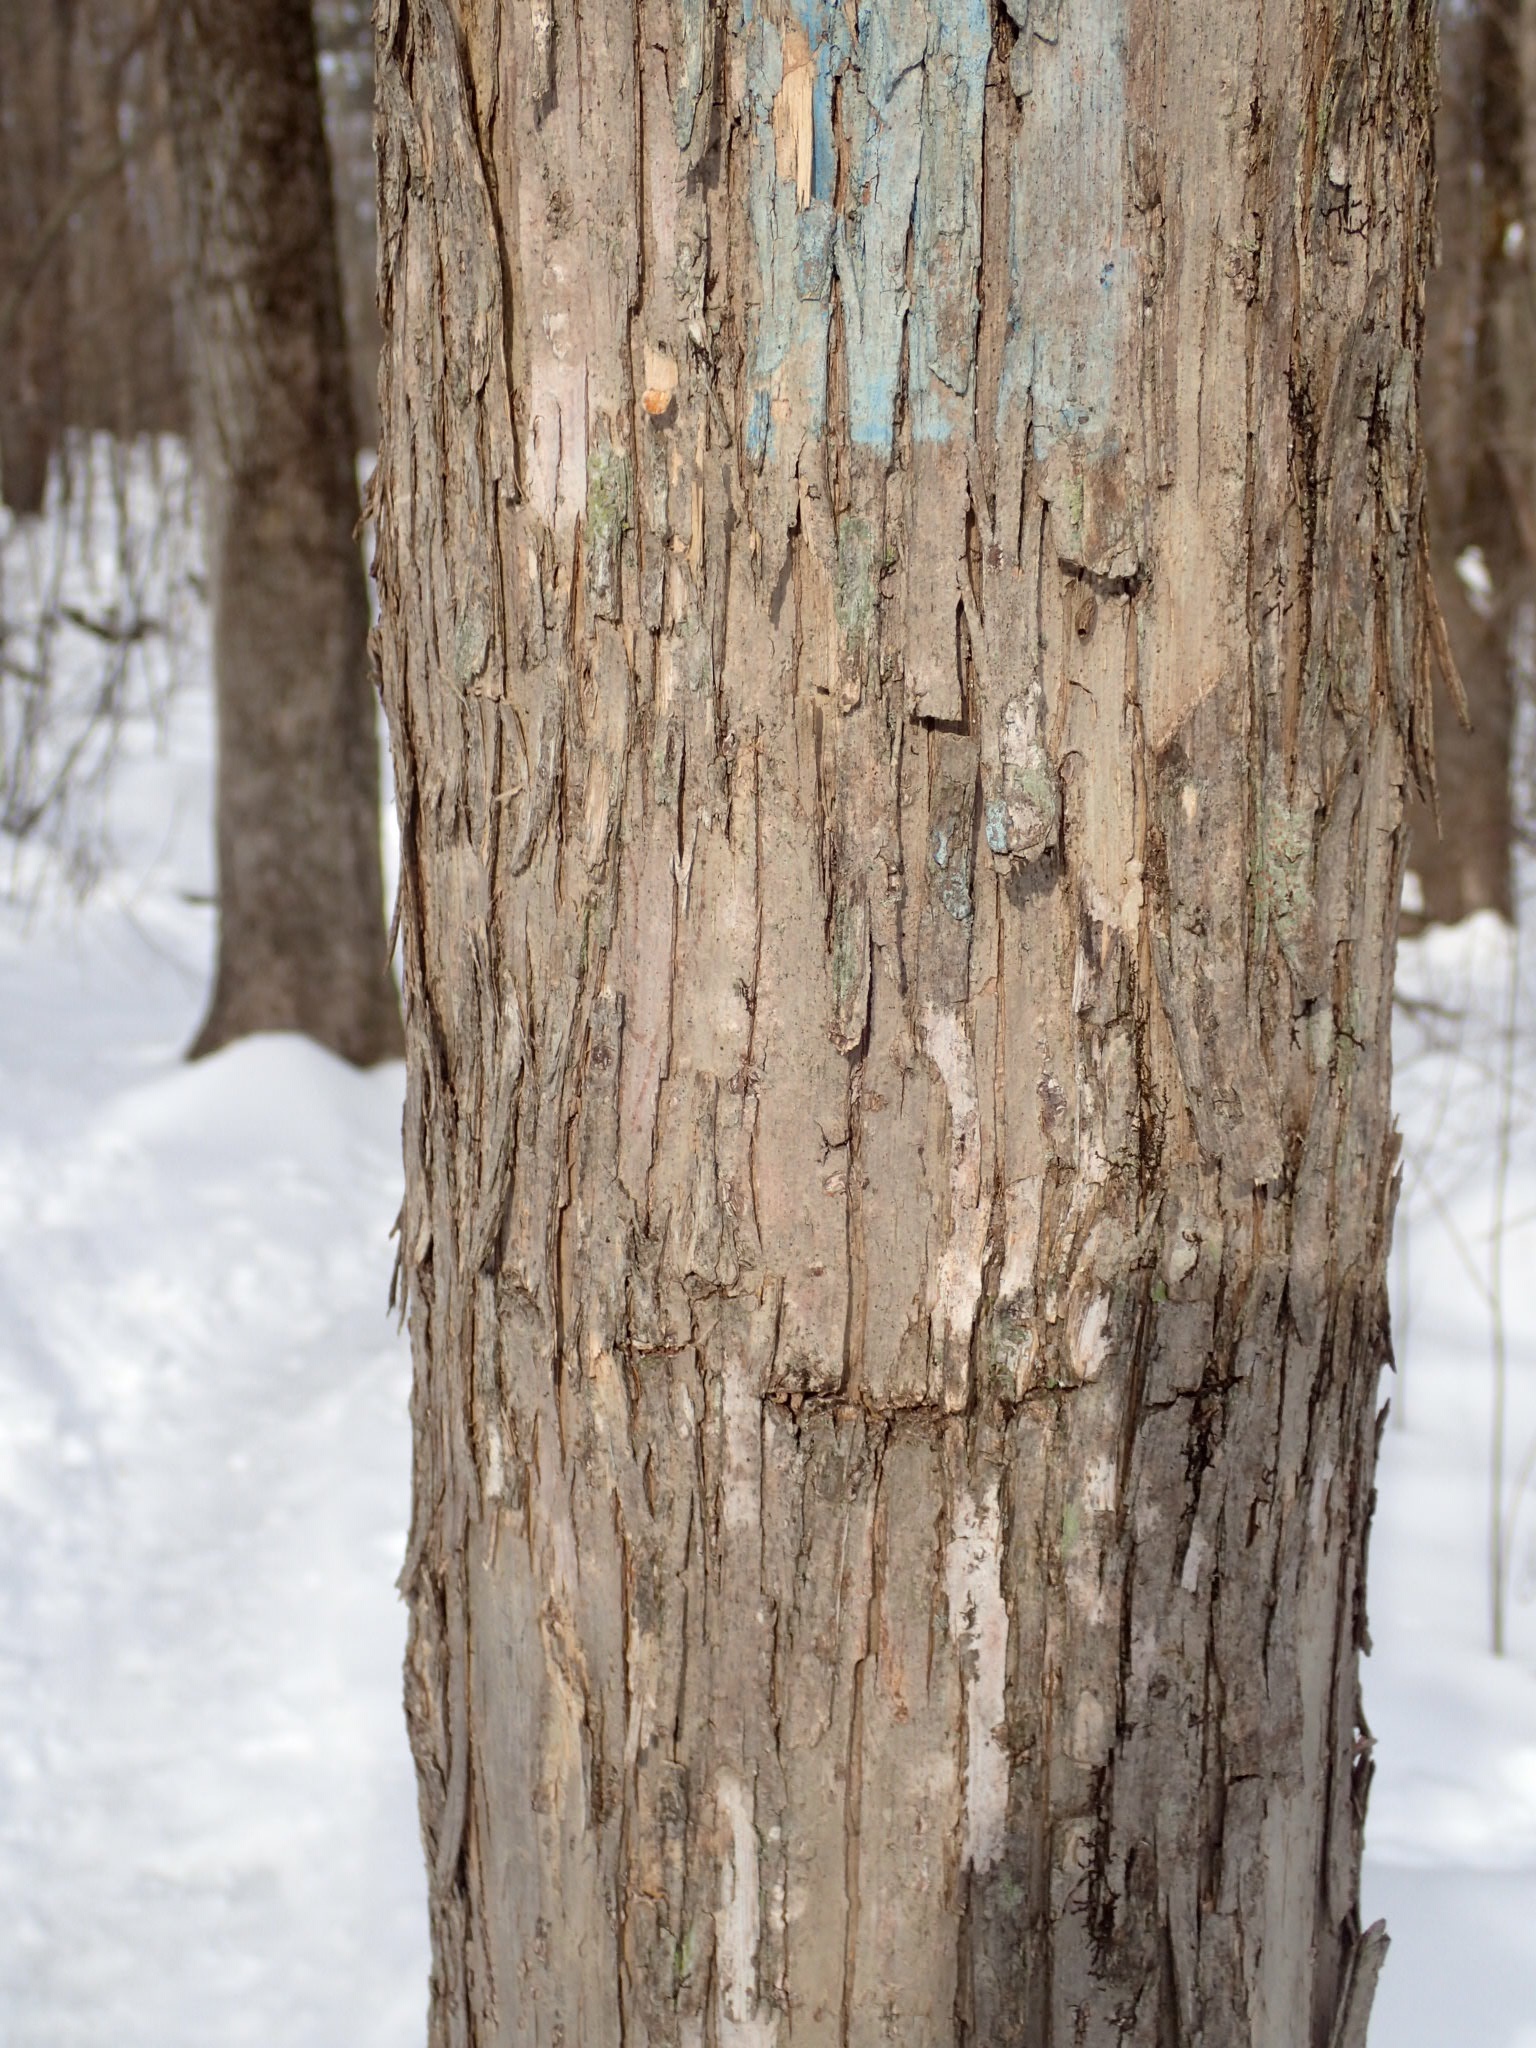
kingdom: Plantae
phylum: Tracheophyta
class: Magnoliopsida
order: Fagales
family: Betulaceae
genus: Ostrya
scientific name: Ostrya virginiana
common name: Ironwood
